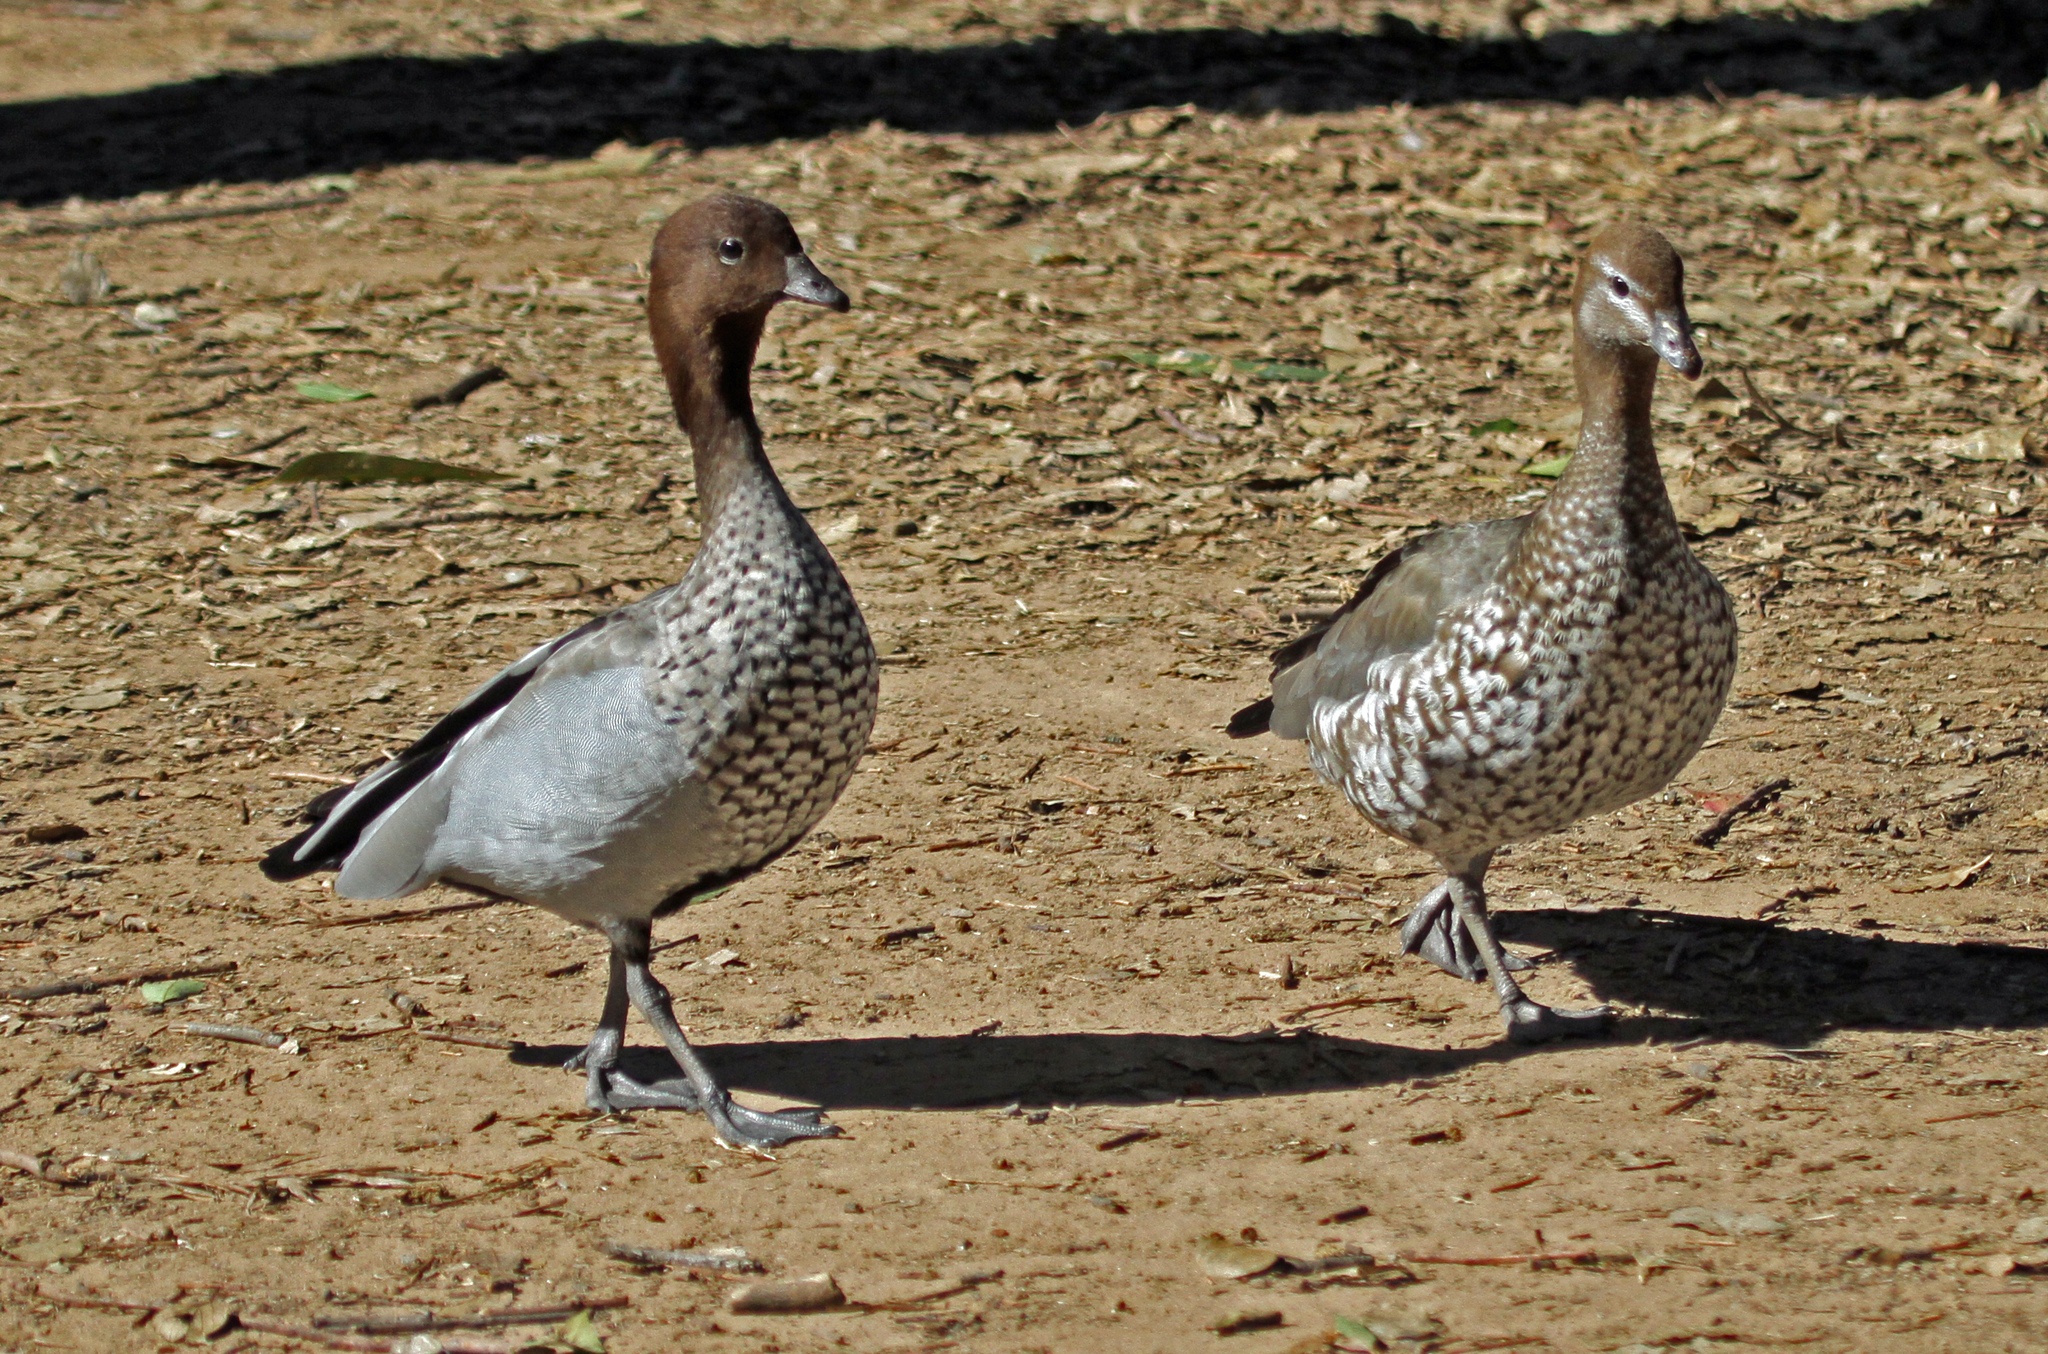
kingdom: Animalia
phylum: Chordata
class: Aves
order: Anseriformes
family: Anatidae
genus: Chenonetta
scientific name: Chenonetta jubata
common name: Maned duck
